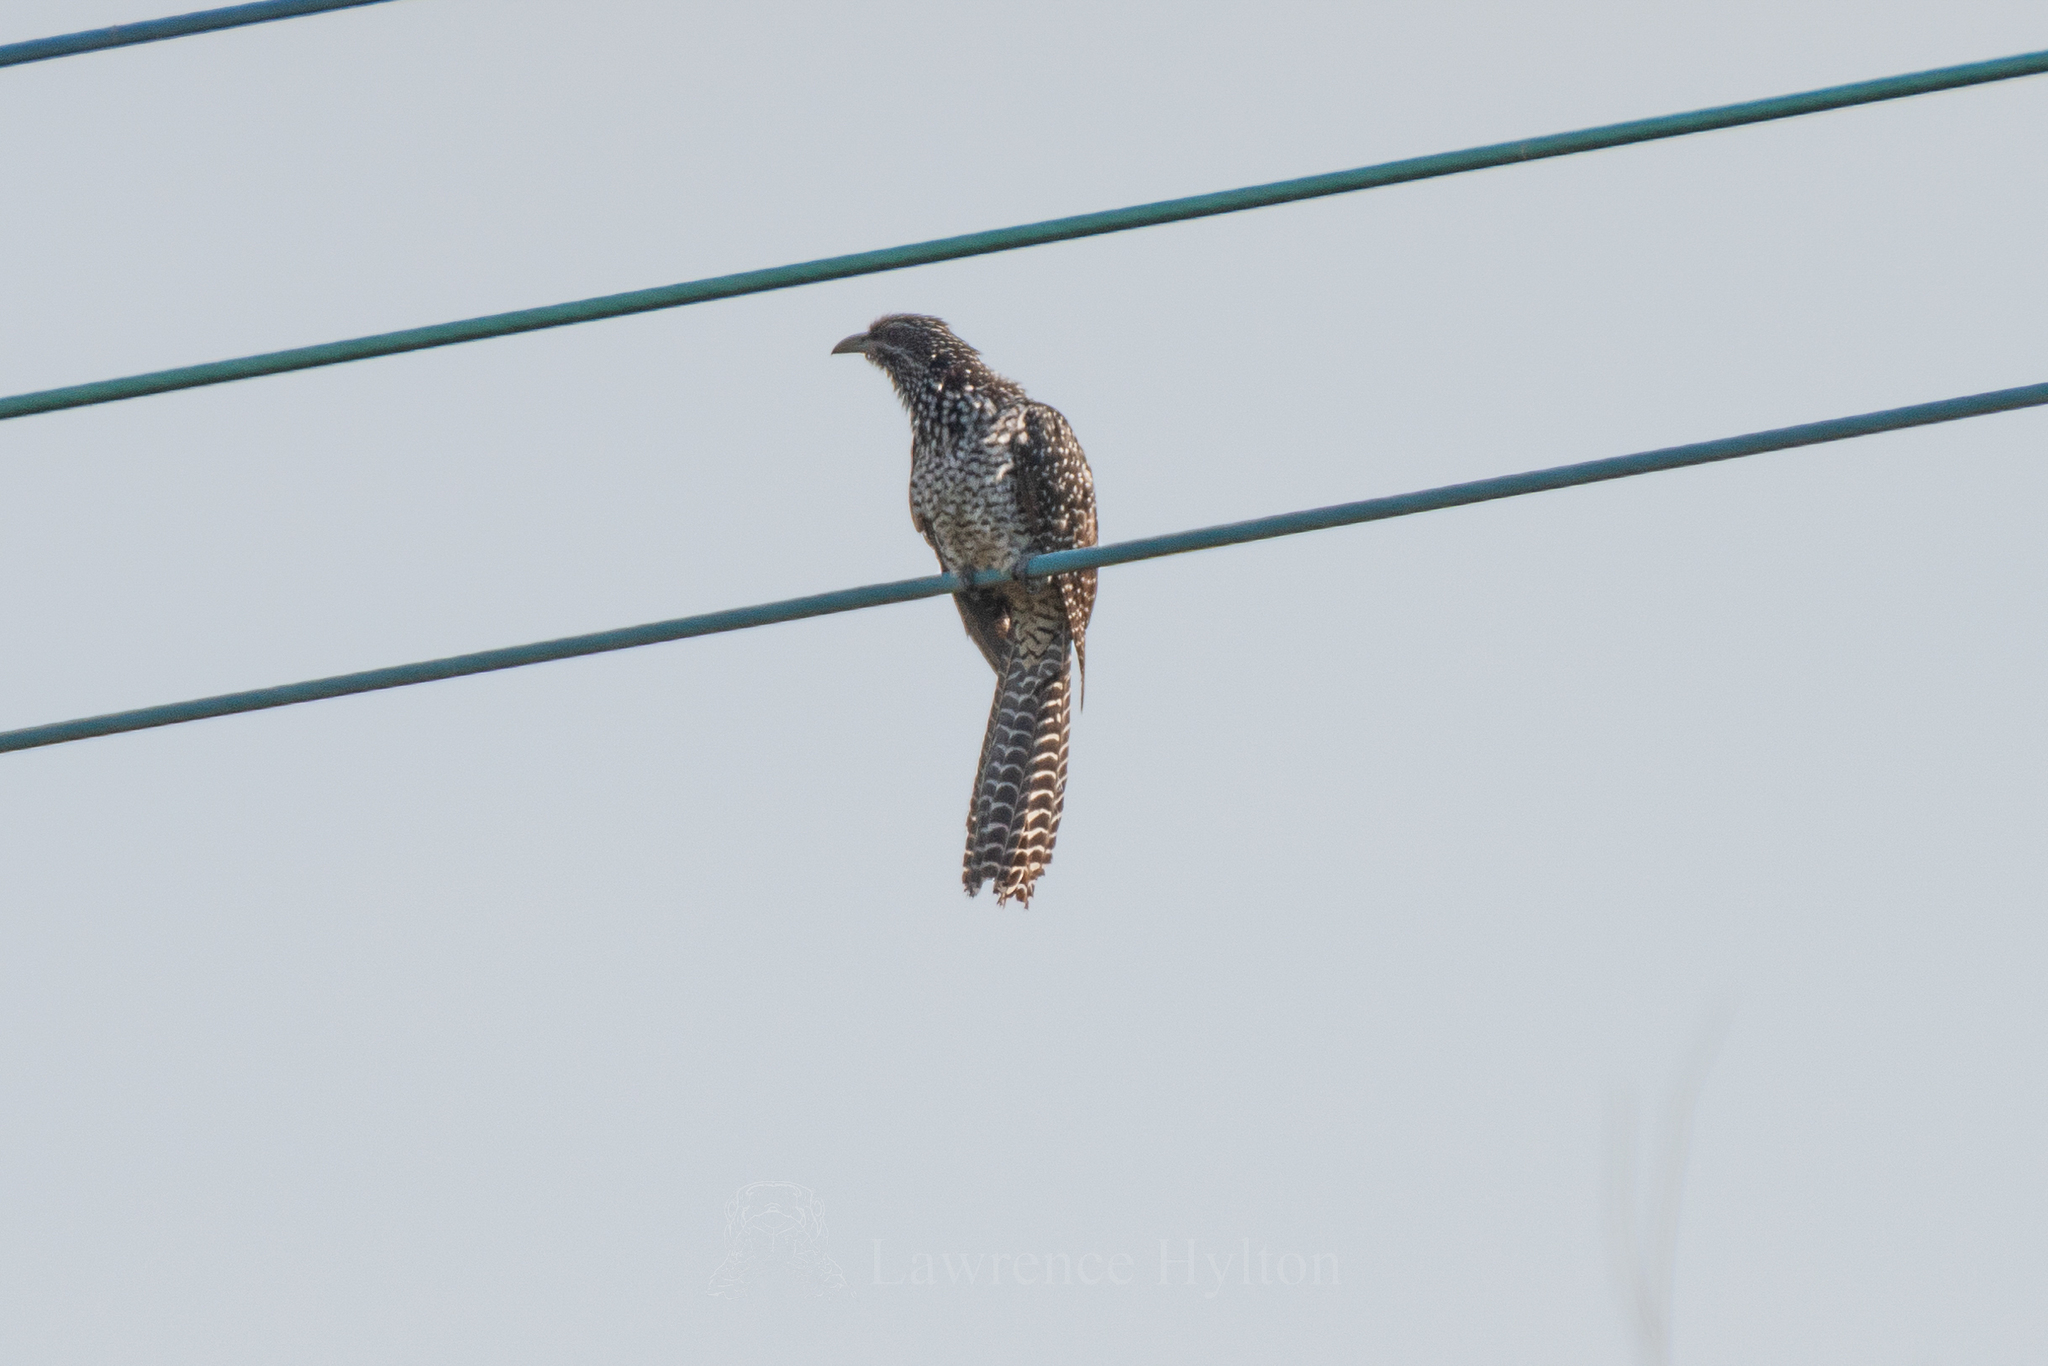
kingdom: Animalia
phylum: Chordata
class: Aves
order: Cuculiformes
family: Cuculidae
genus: Eudynamys
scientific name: Eudynamys scolopaceus
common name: Asian koel
